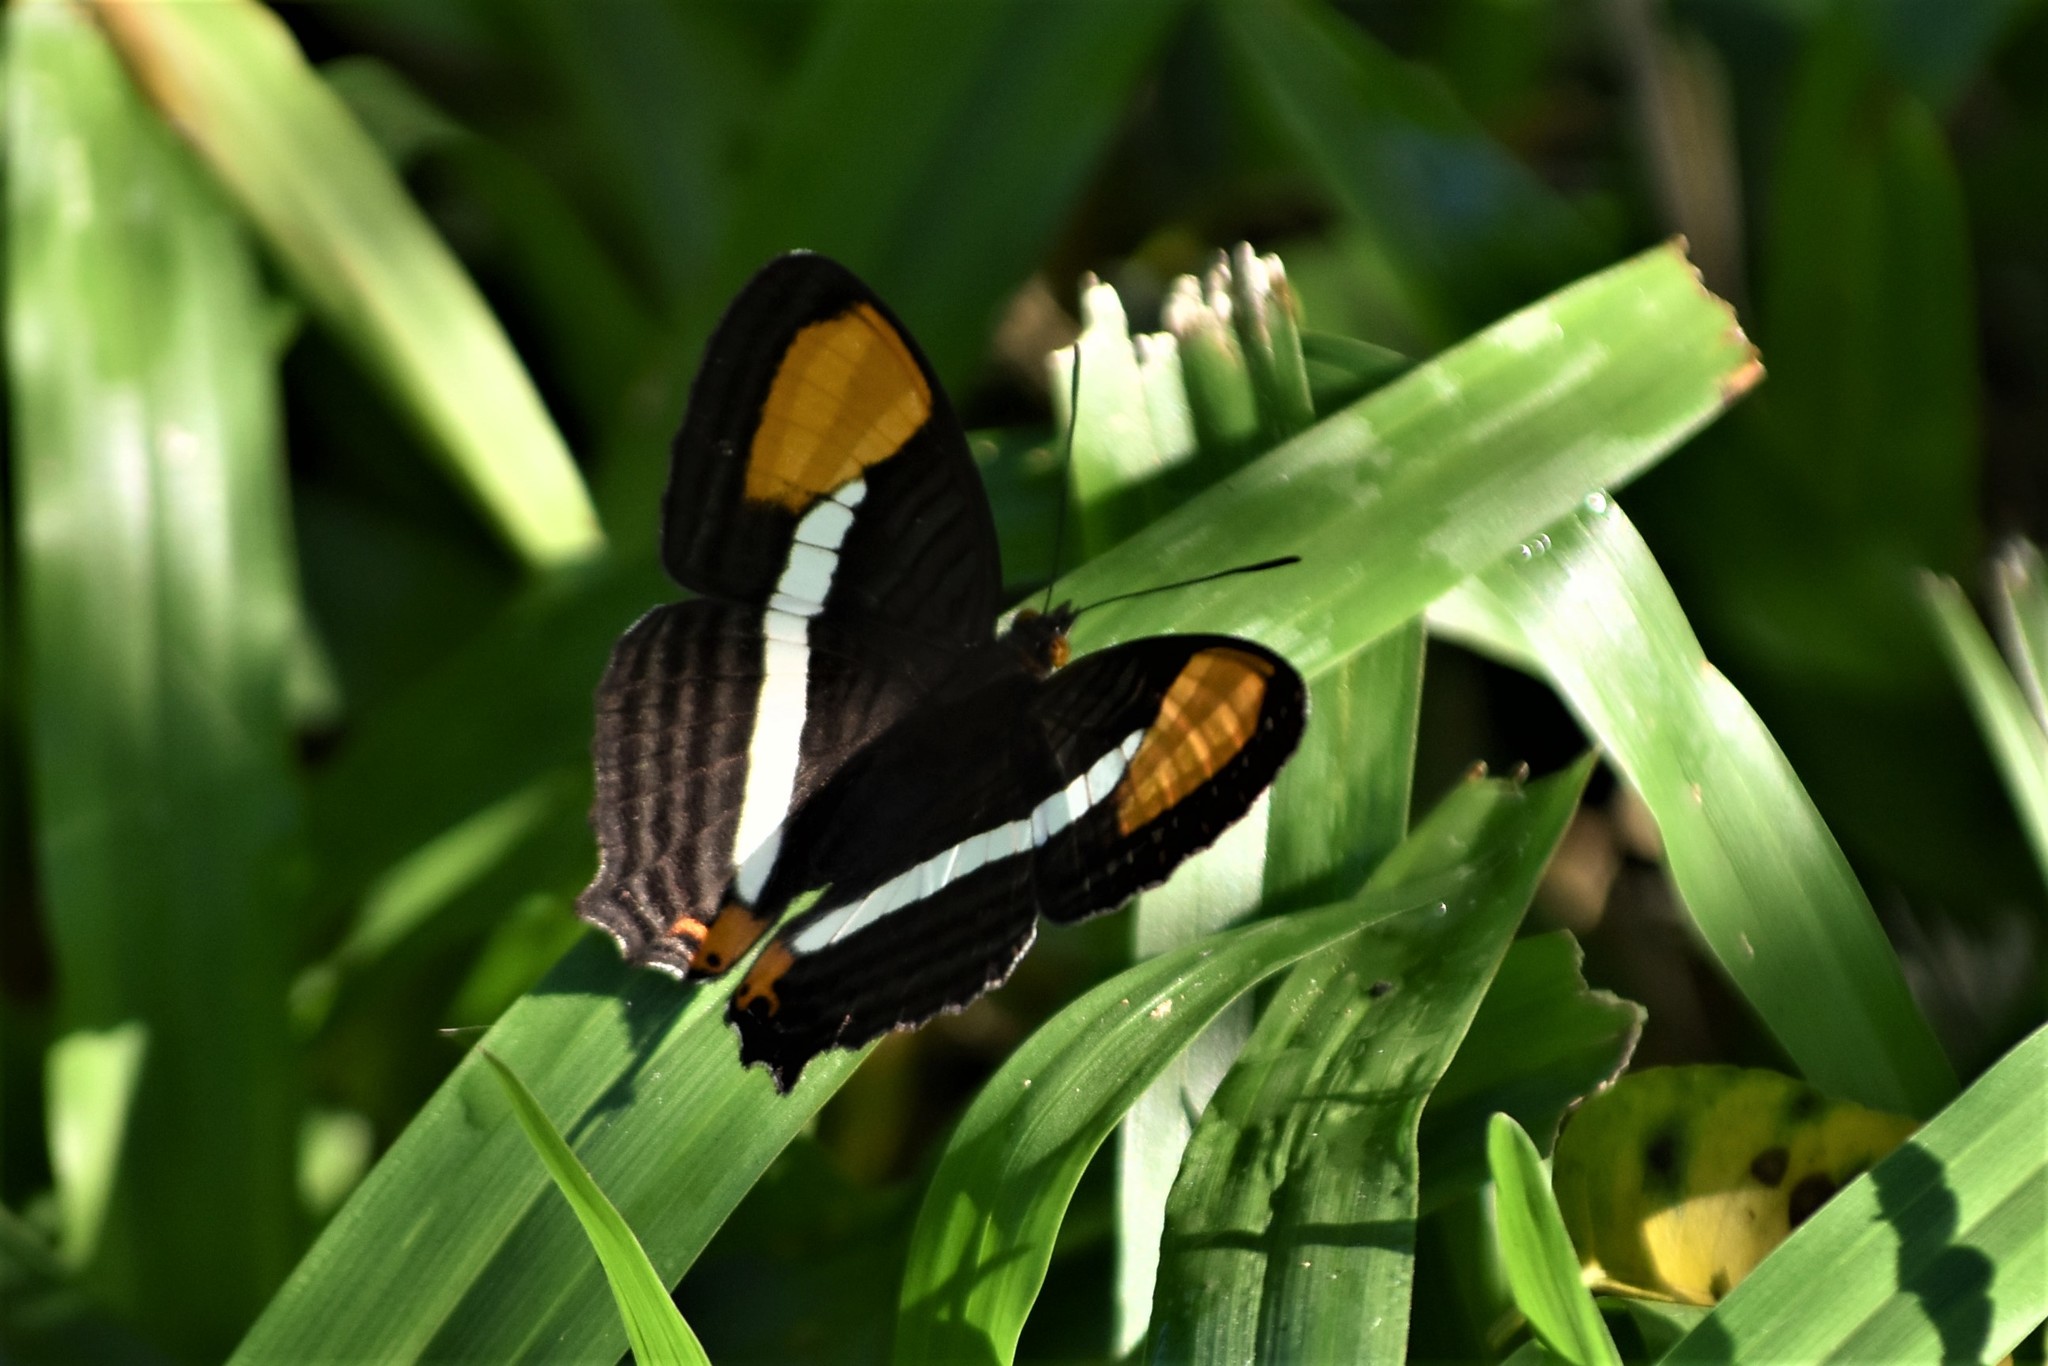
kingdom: Animalia
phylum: Arthropoda
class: Insecta
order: Lepidoptera
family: Nymphalidae
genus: Limenitis
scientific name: Limenitis syma
